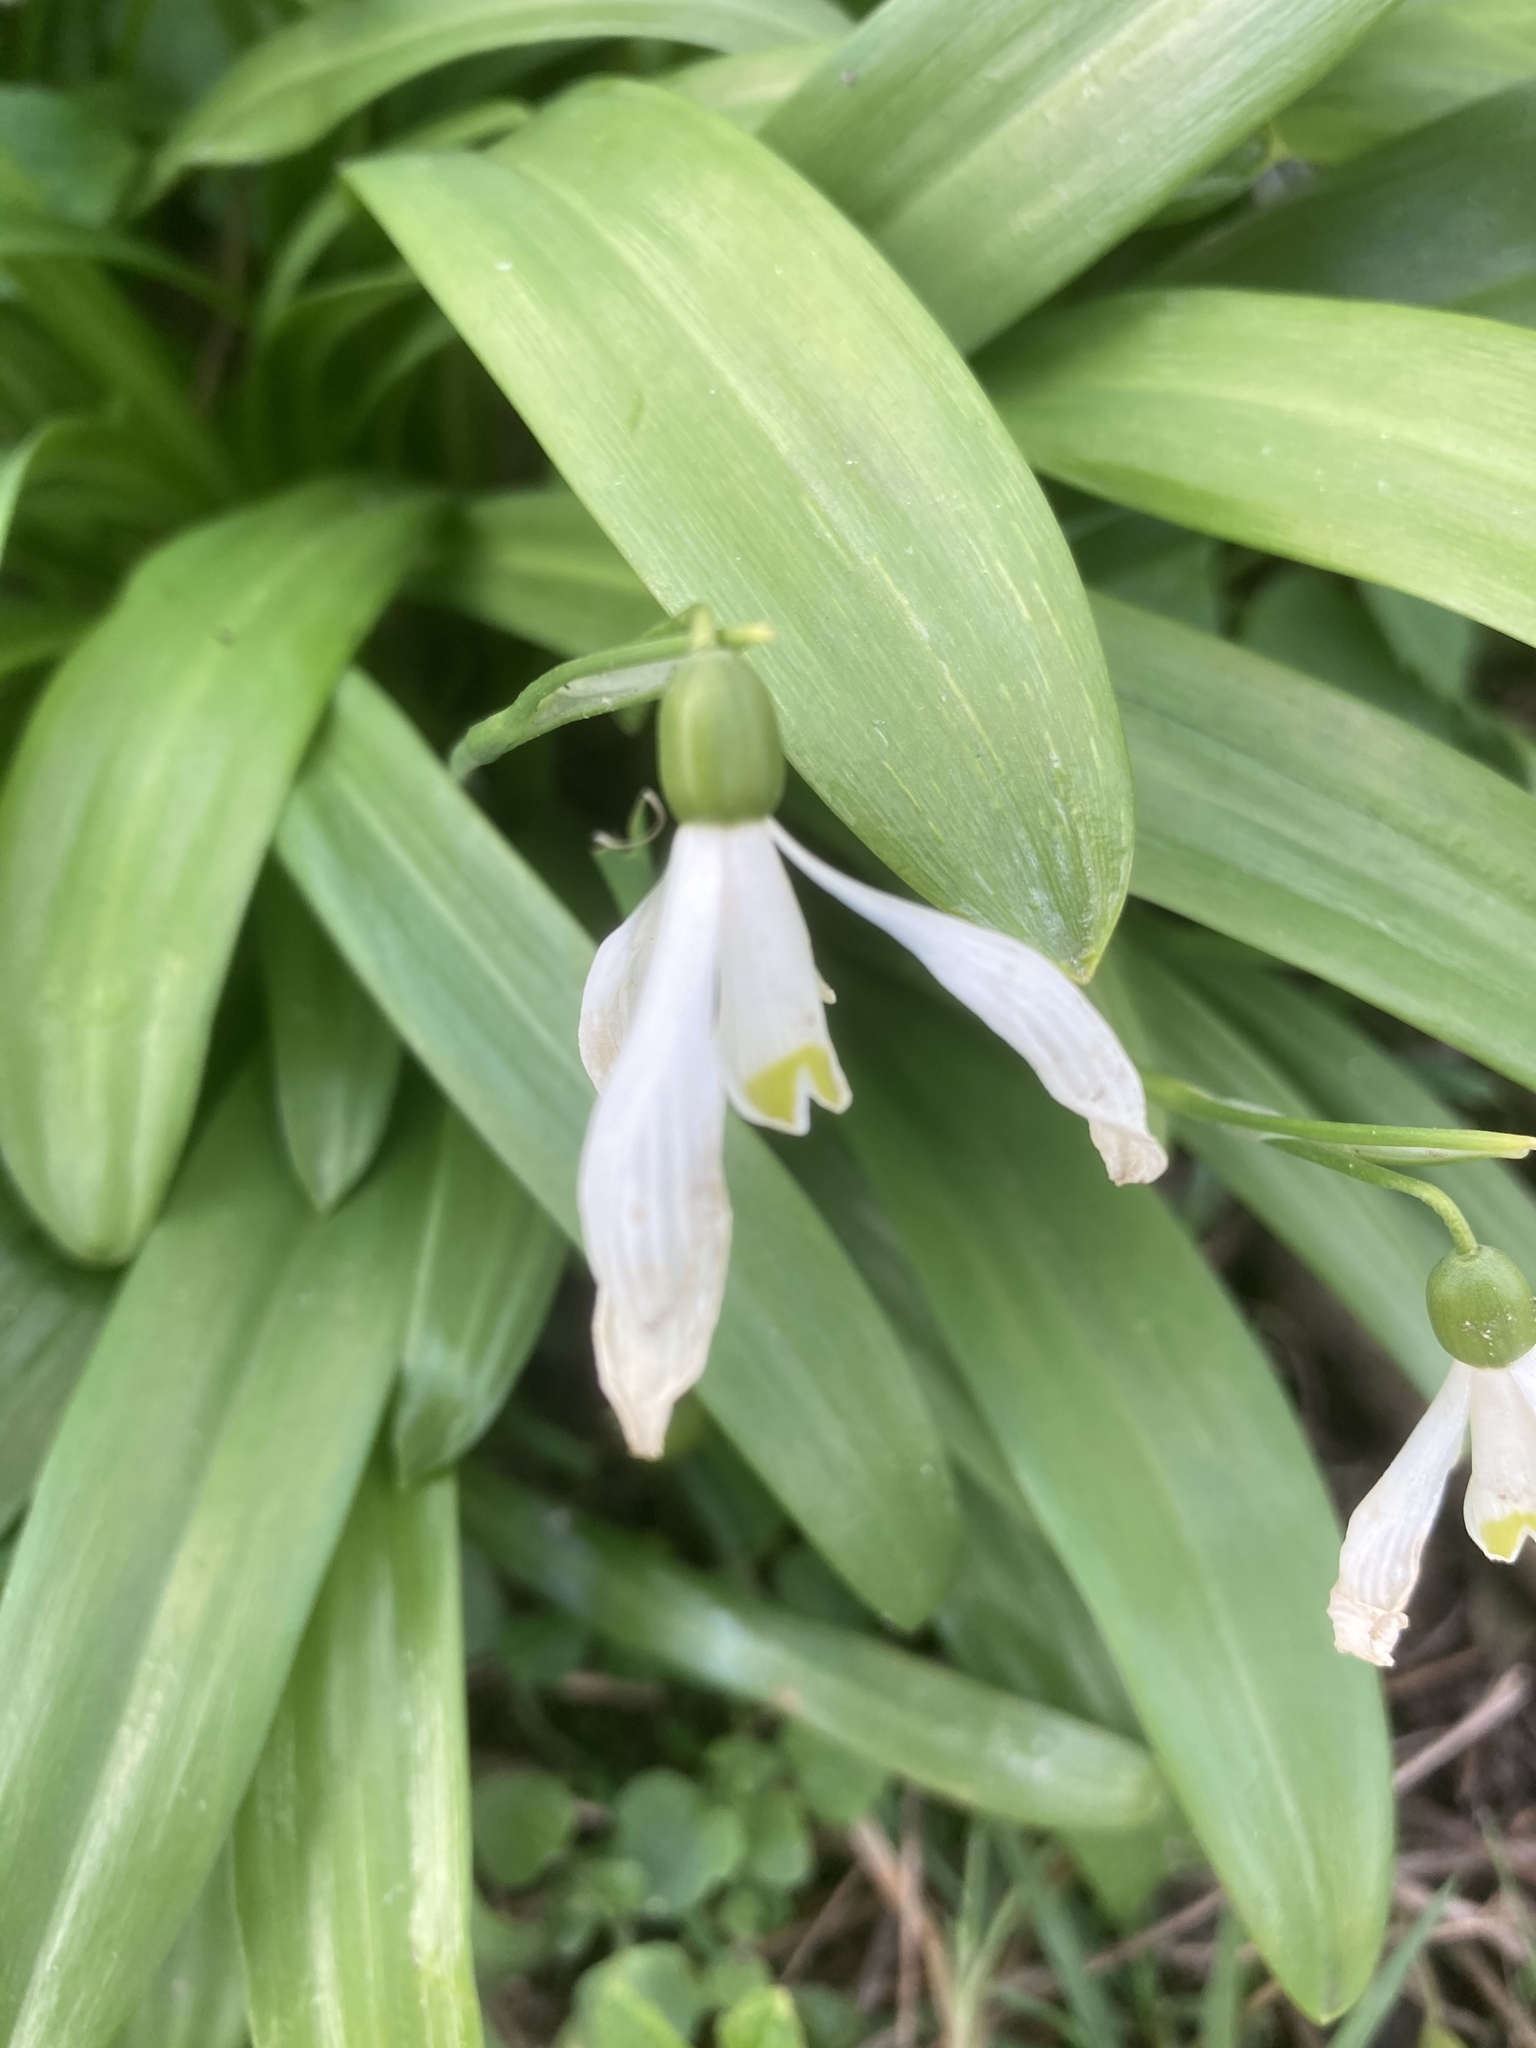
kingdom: Plantae
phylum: Tracheophyta
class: Liliopsida
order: Asparagales
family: Amaryllidaceae
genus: Galanthus
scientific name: Galanthus woronowii
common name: Green snowdrop
